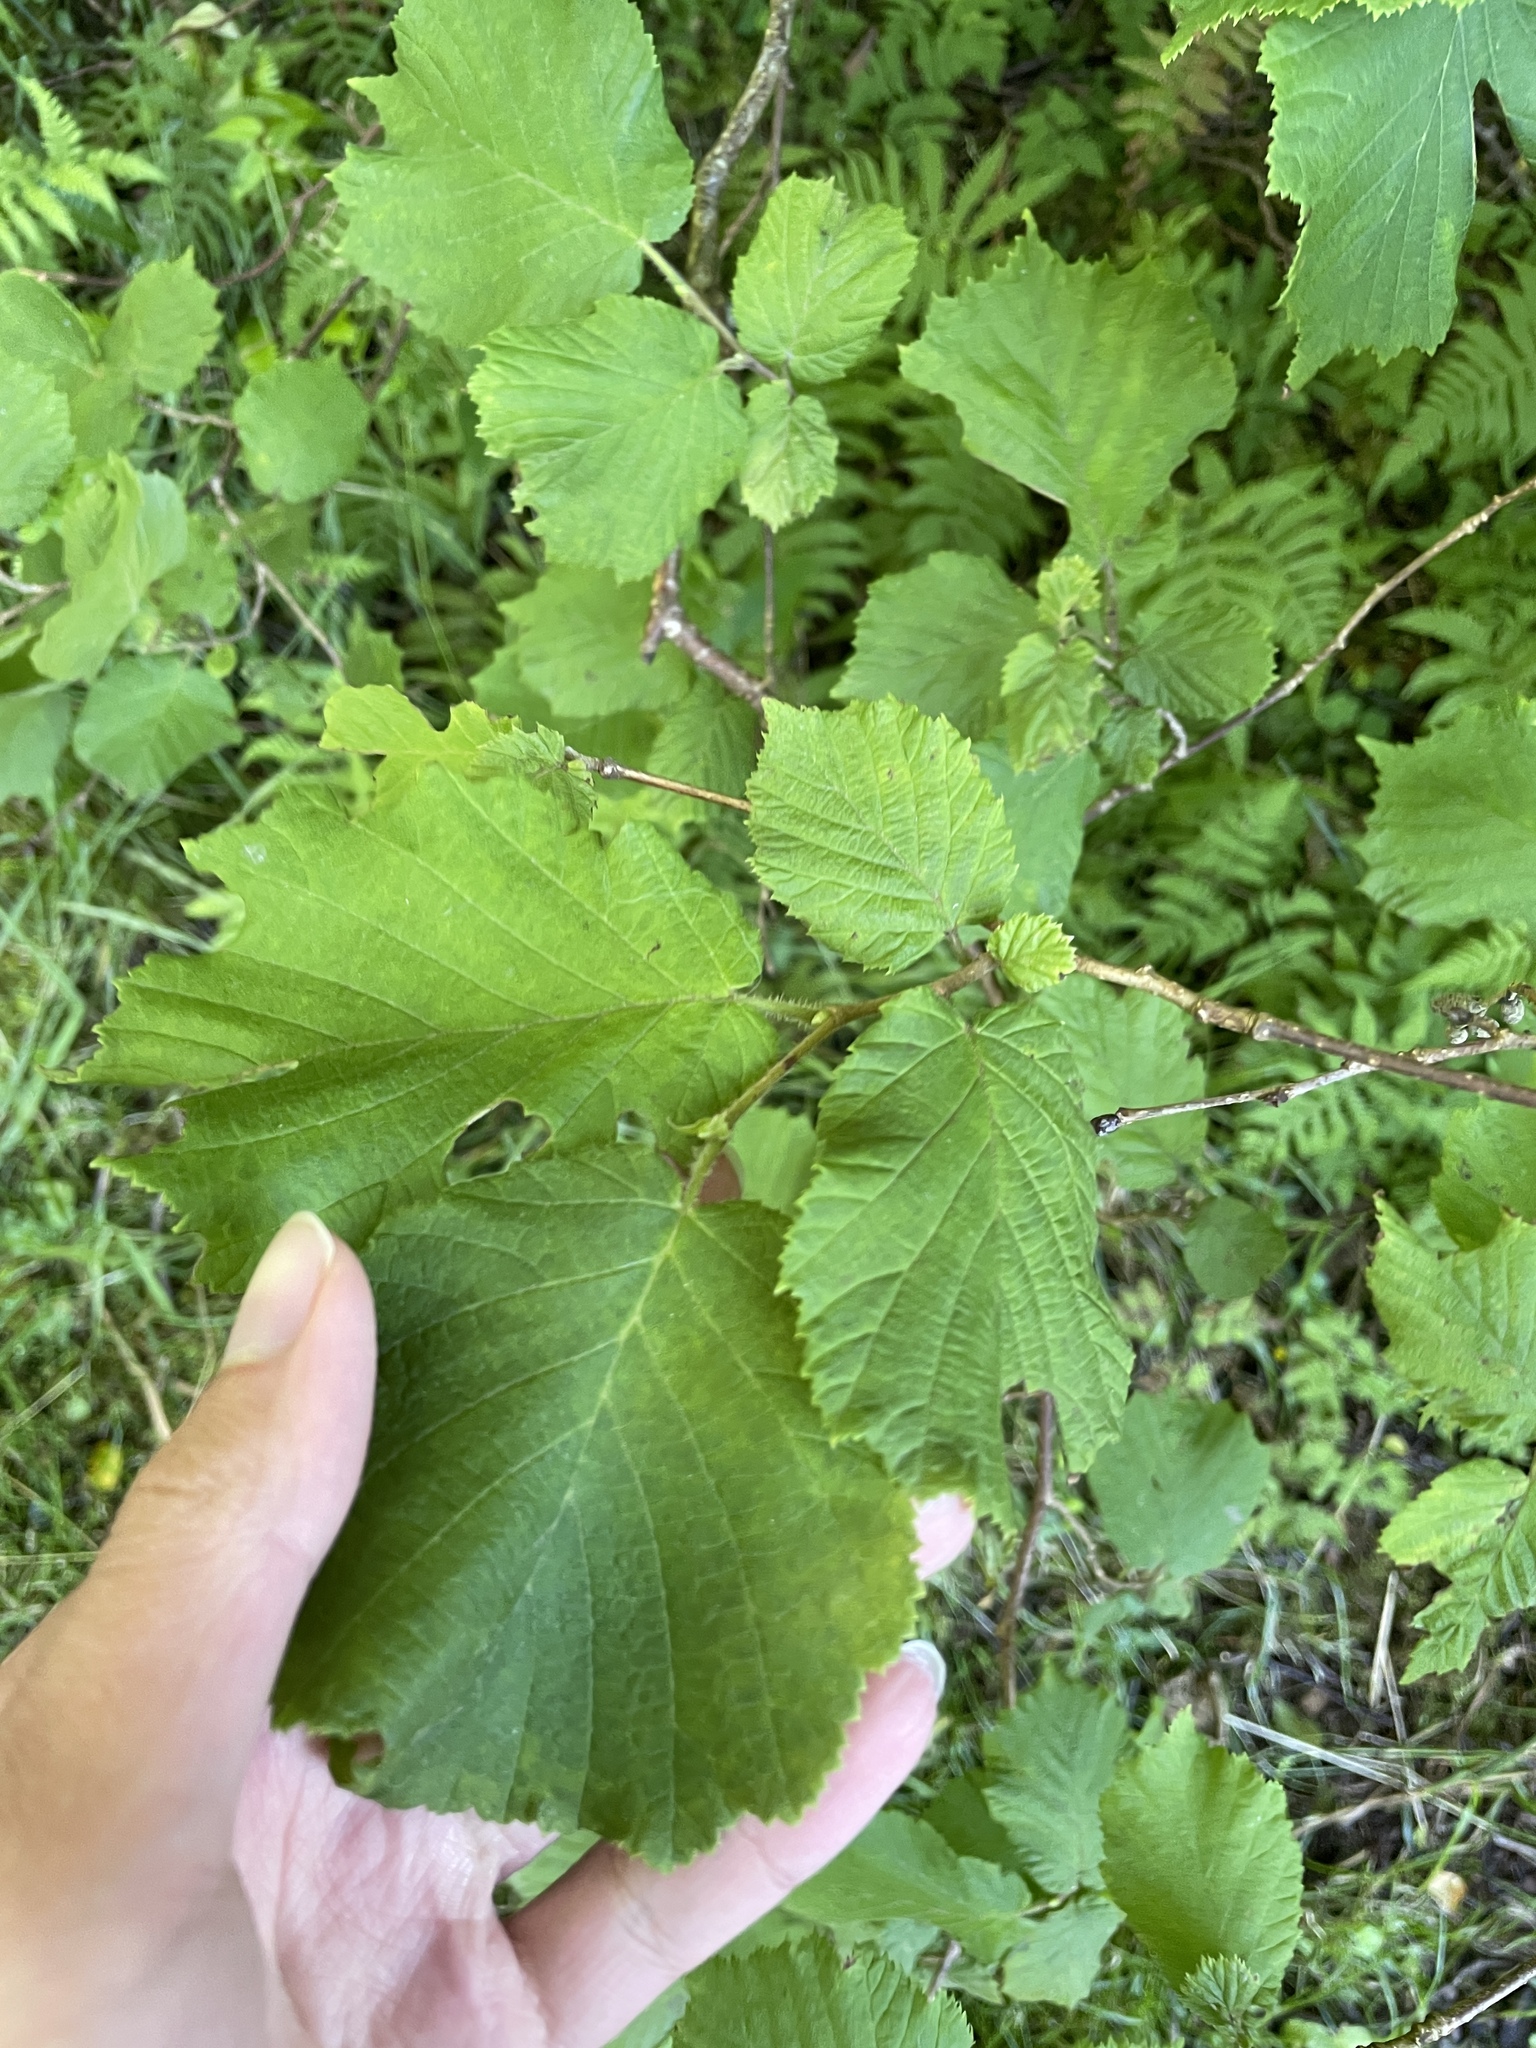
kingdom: Plantae
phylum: Tracheophyta
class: Magnoliopsida
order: Fagales
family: Betulaceae
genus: Corylus
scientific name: Corylus avellana
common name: European hazel
